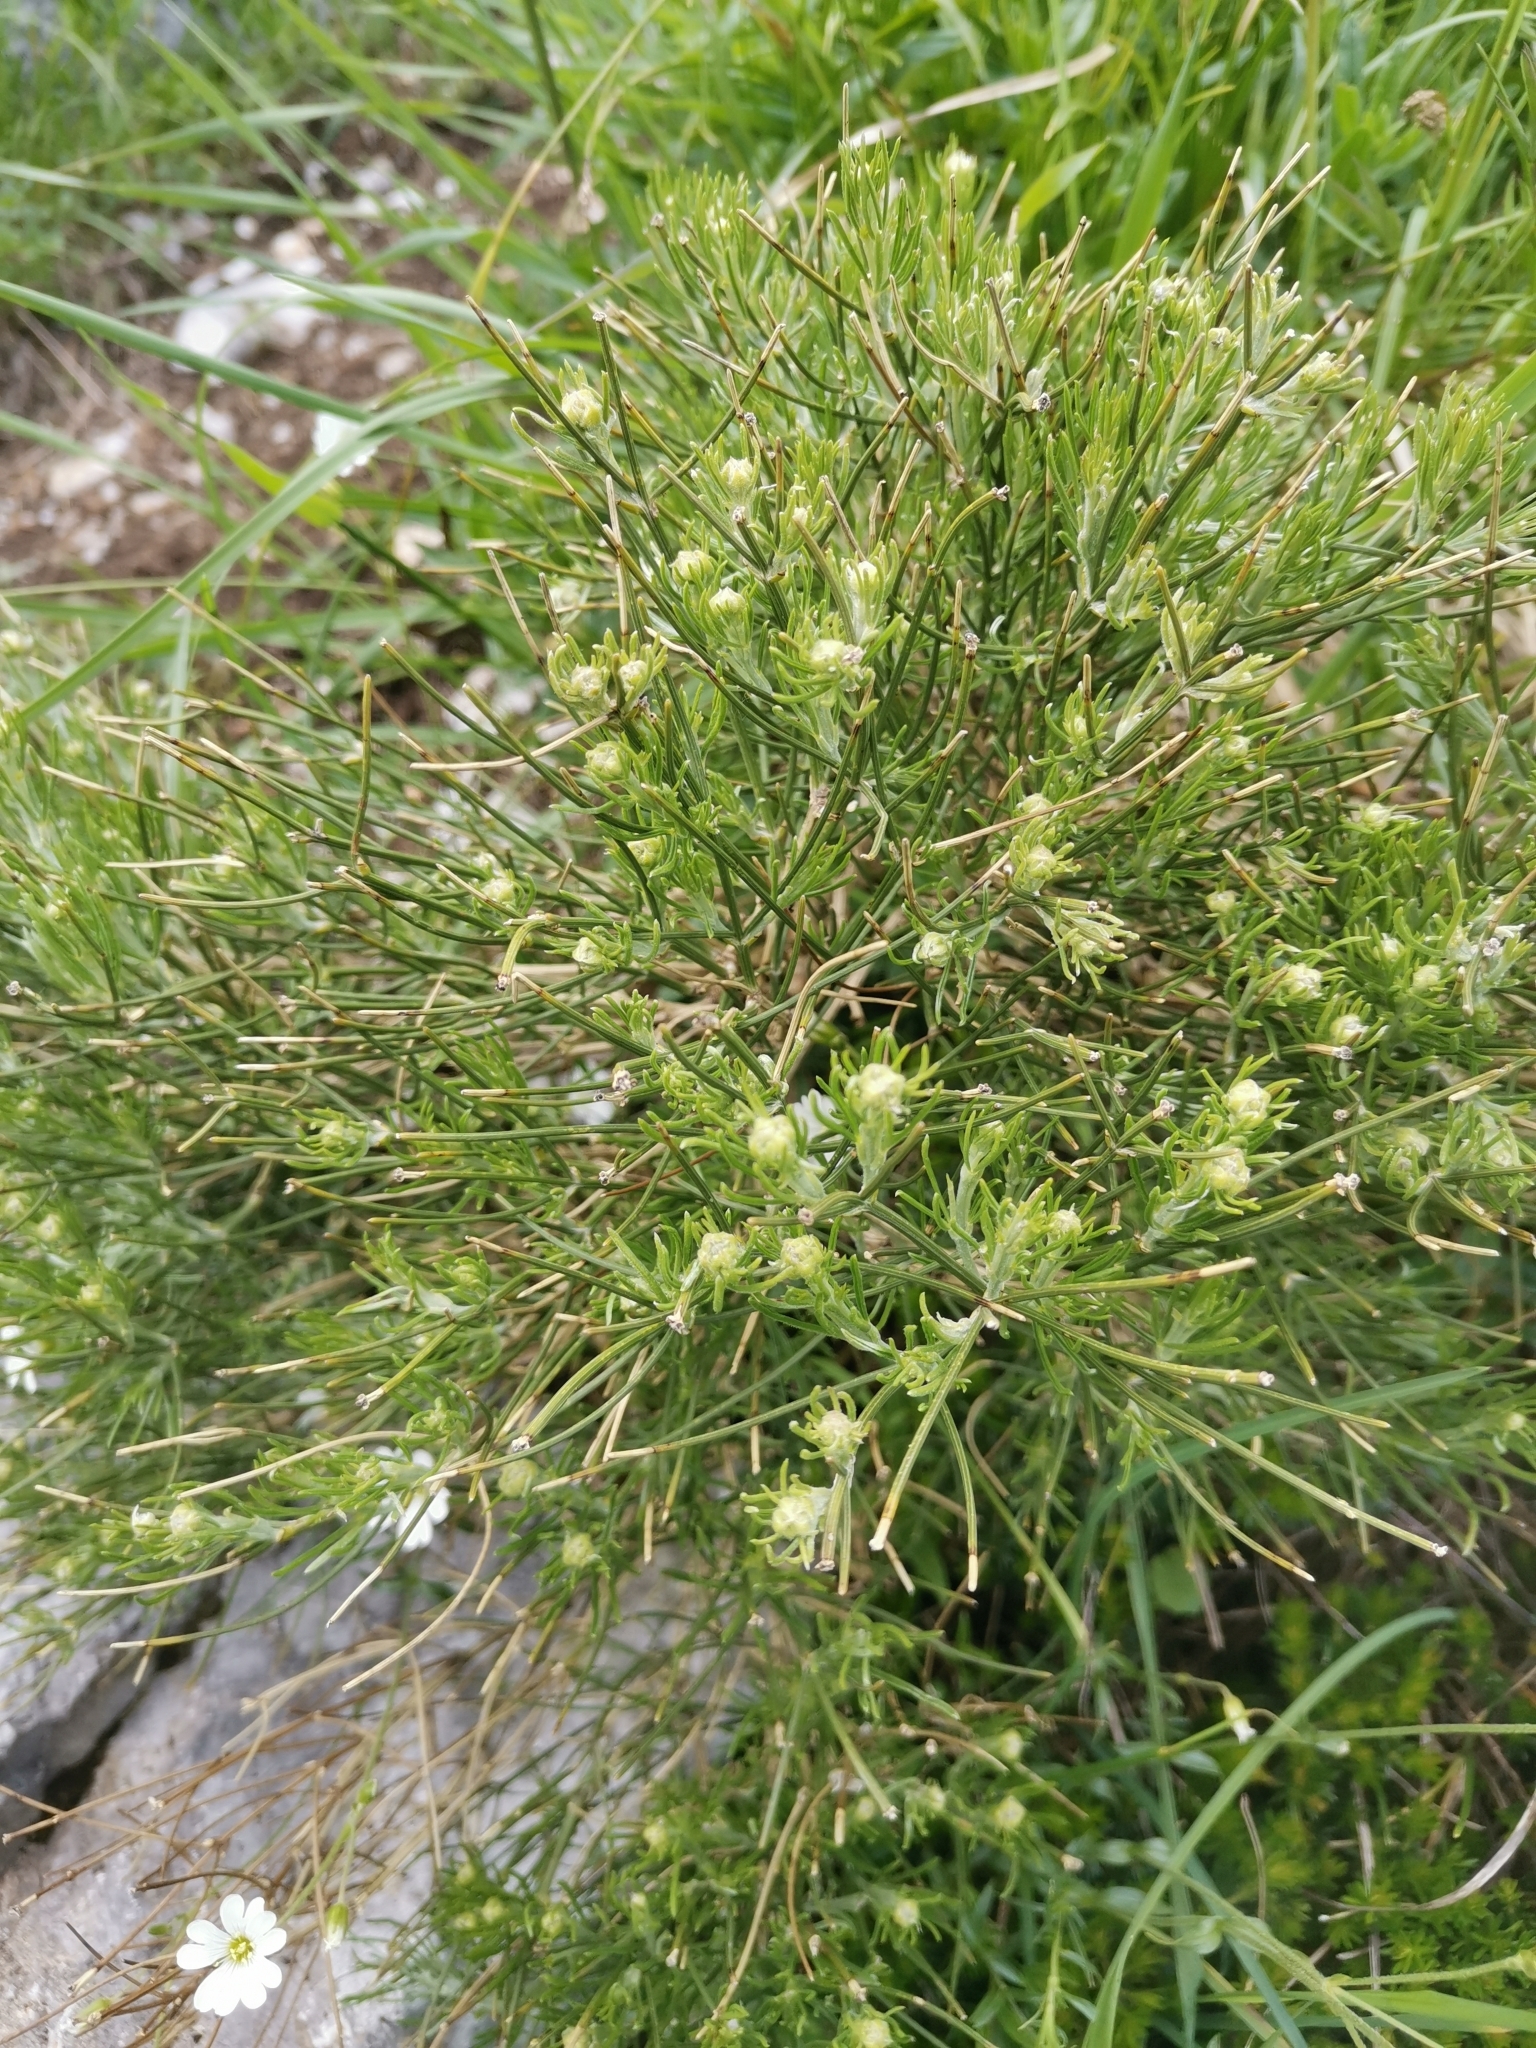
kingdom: Plantae
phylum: Tracheophyta
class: Magnoliopsida
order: Fabales
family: Fabaceae
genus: Genista
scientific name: Genista radiata
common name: Southern greenweed
